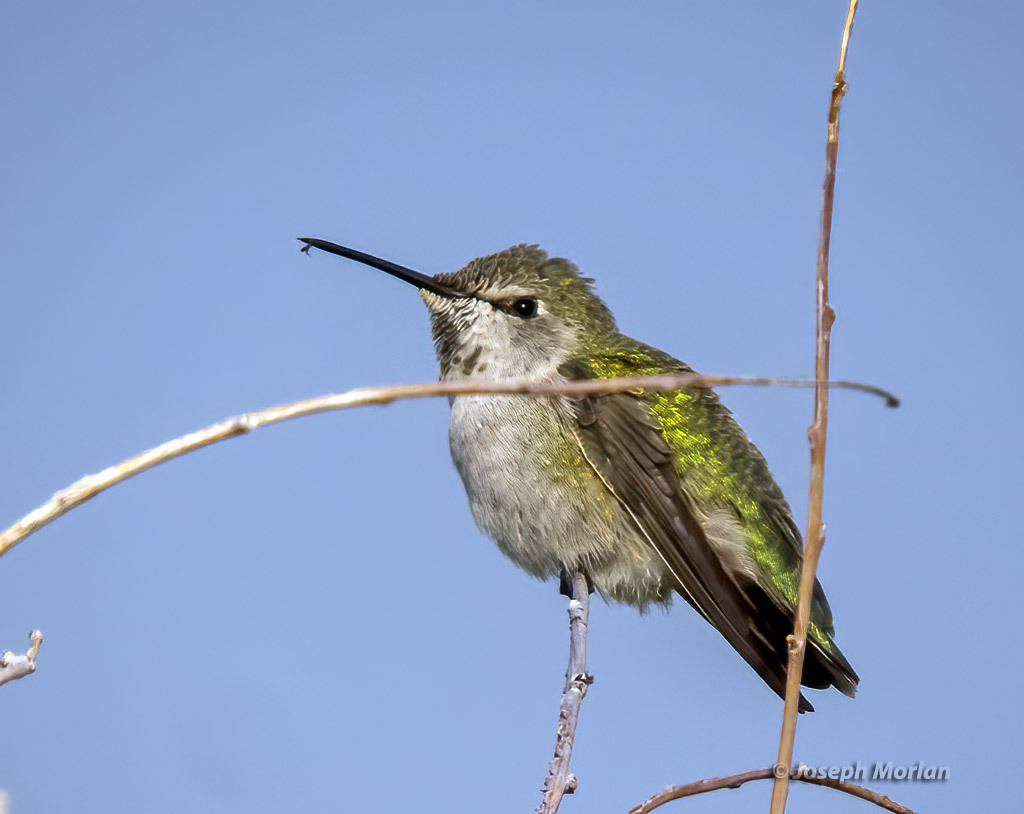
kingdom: Animalia
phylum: Chordata
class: Aves
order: Apodiformes
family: Trochilidae
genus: Calypte
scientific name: Calypte anna
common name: Anna's hummingbird
